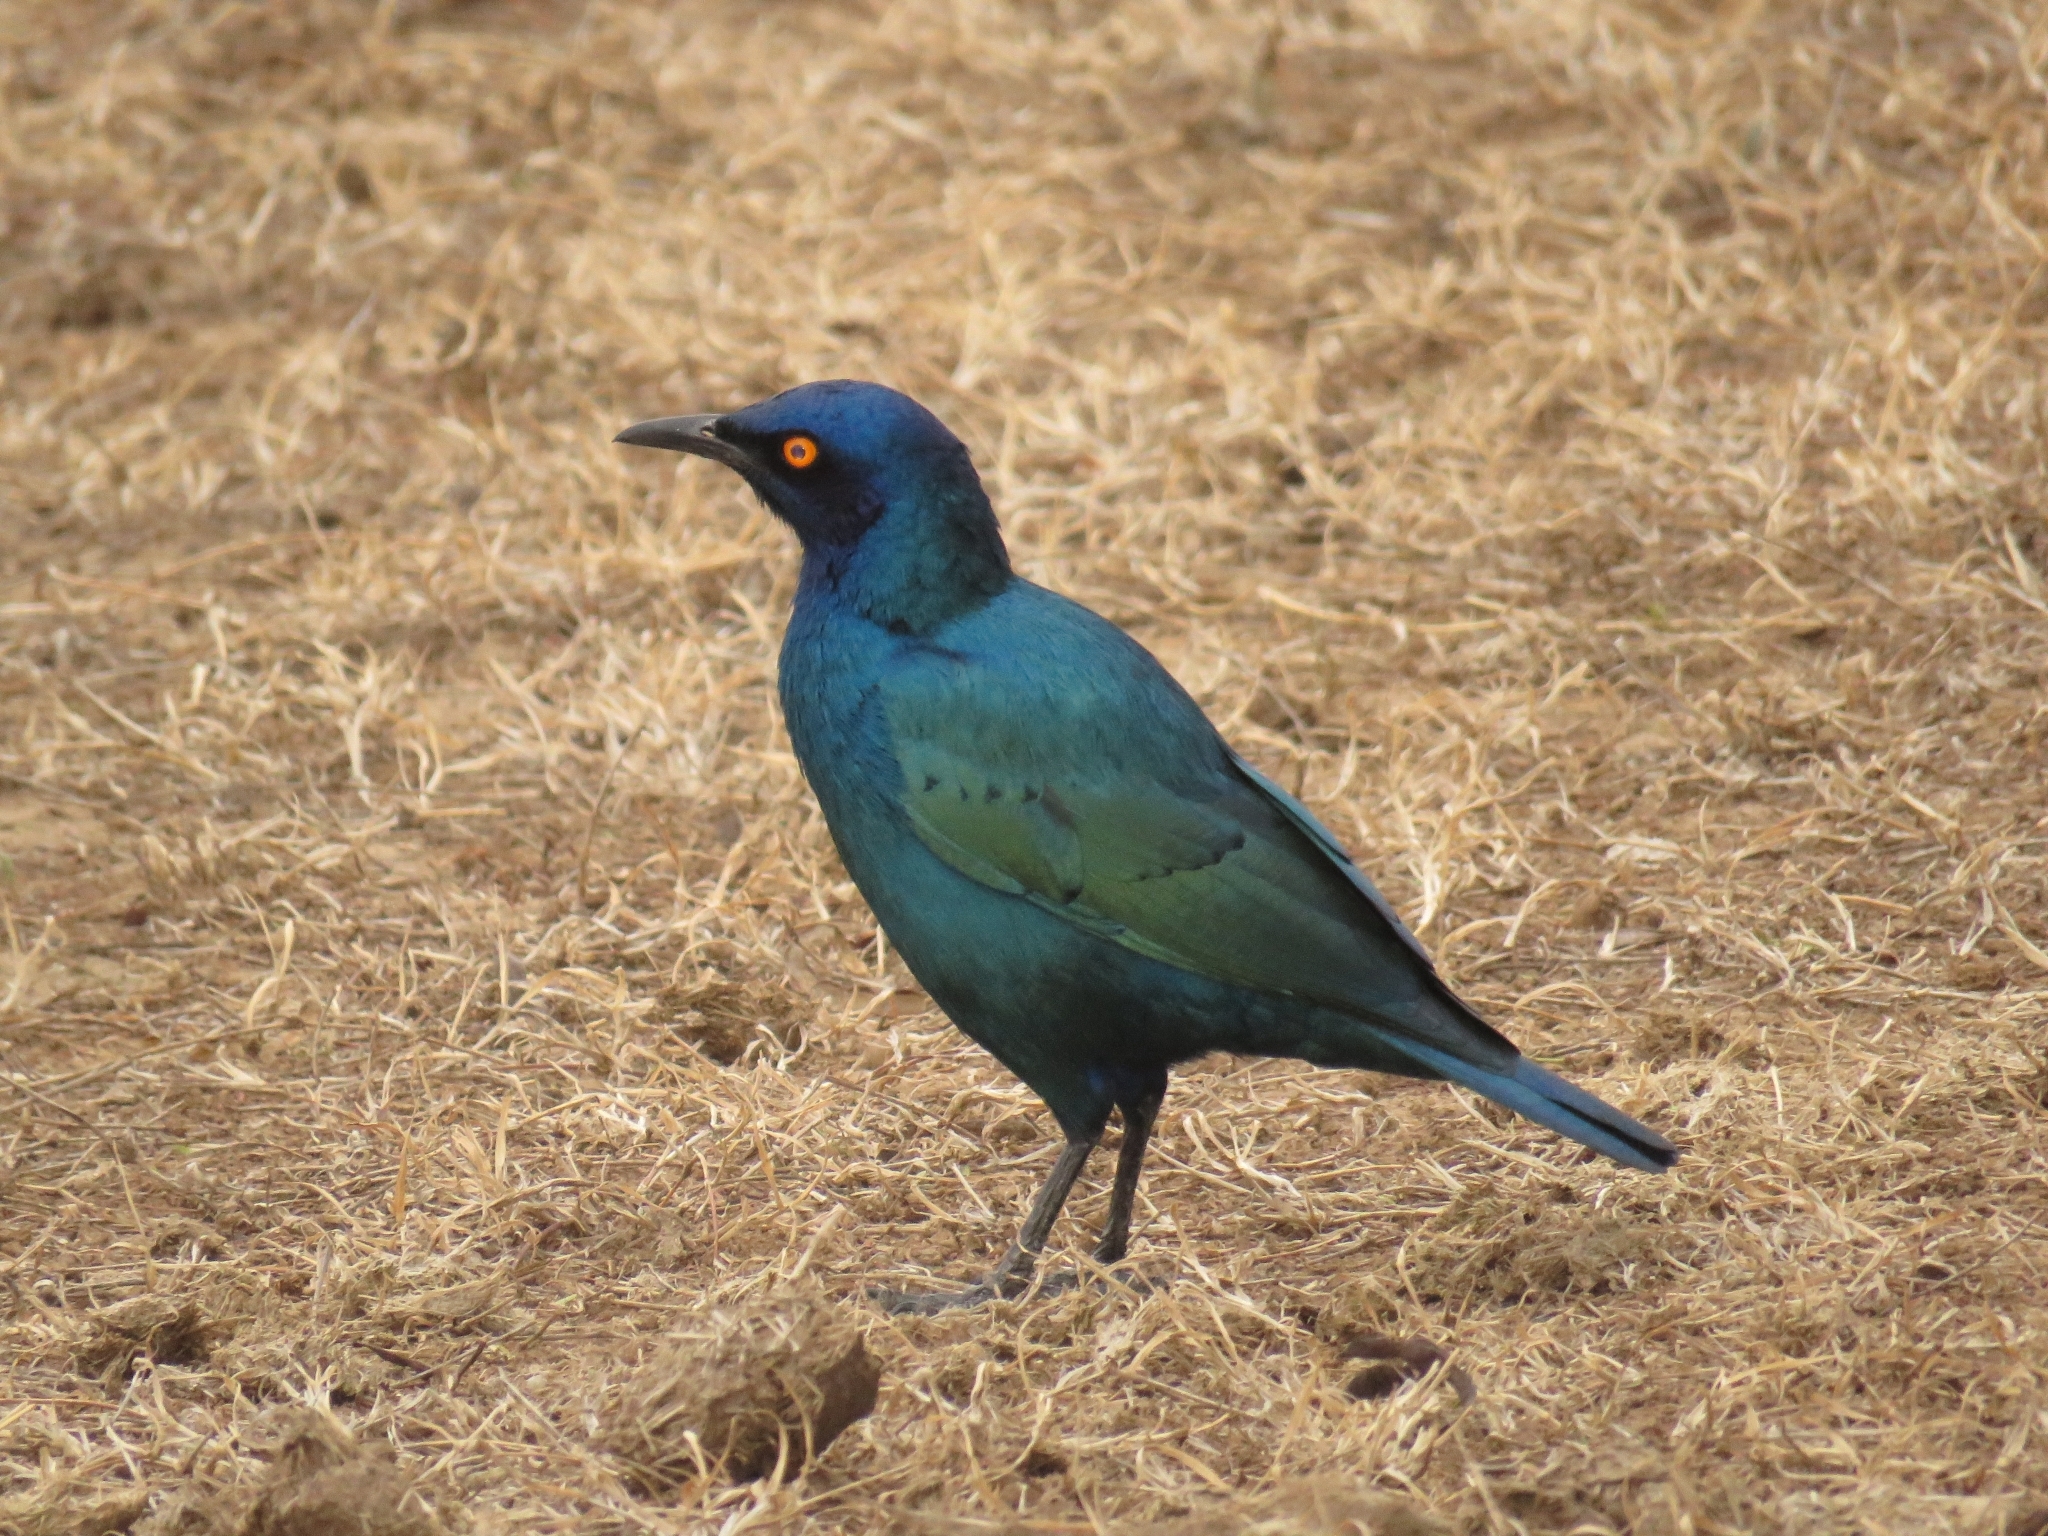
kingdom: Animalia
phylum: Chordata
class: Aves
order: Passeriformes
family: Sturnidae
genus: Lamprotornis
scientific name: Lamprotornis nitens
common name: Cape starling
